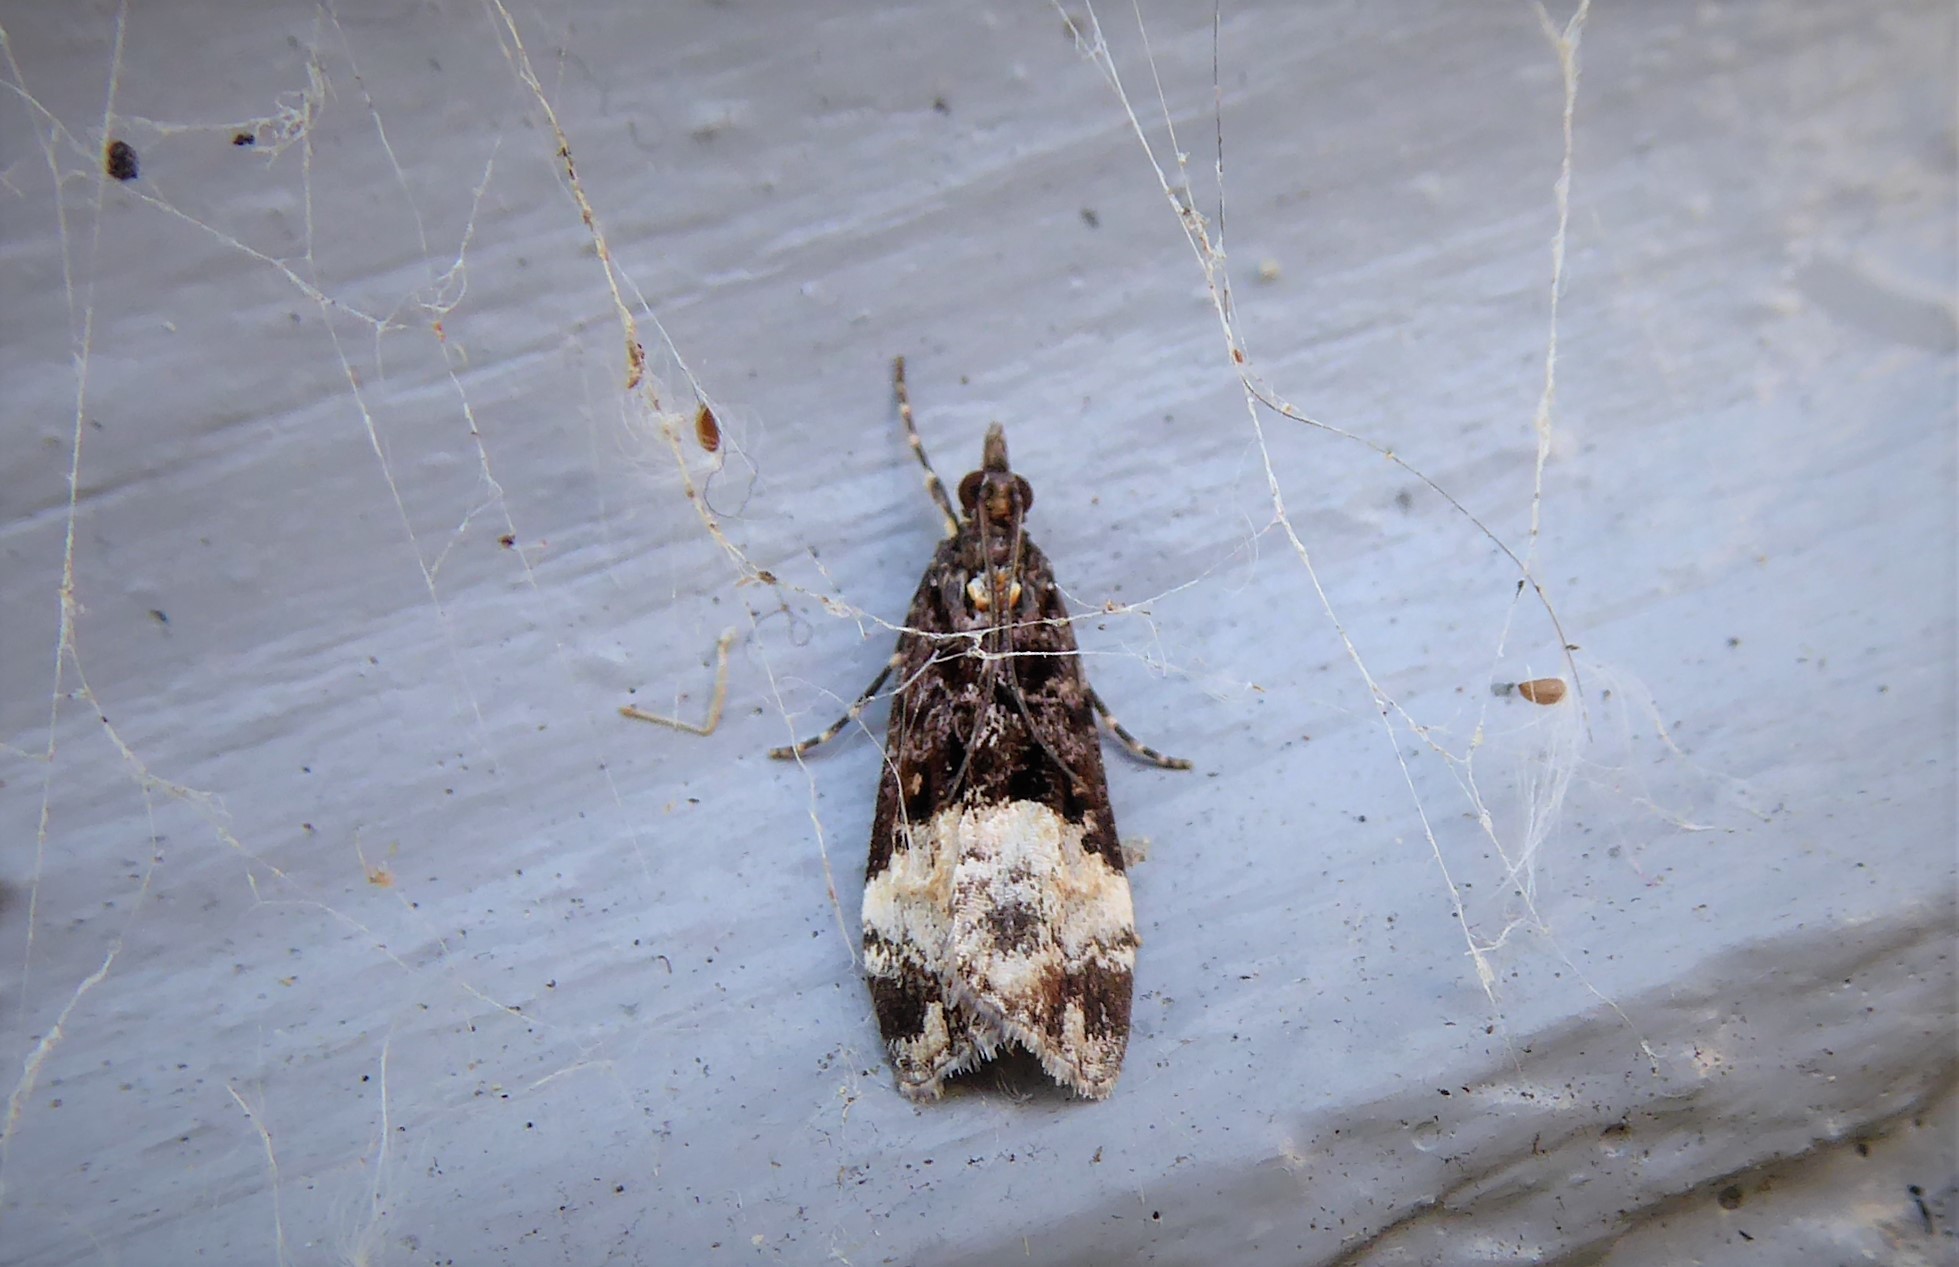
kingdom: Animalia
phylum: Arthropoda
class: Insecta
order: Lepidoptera
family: Crambidae
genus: Scoparia
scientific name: Scoparia minusculalis
